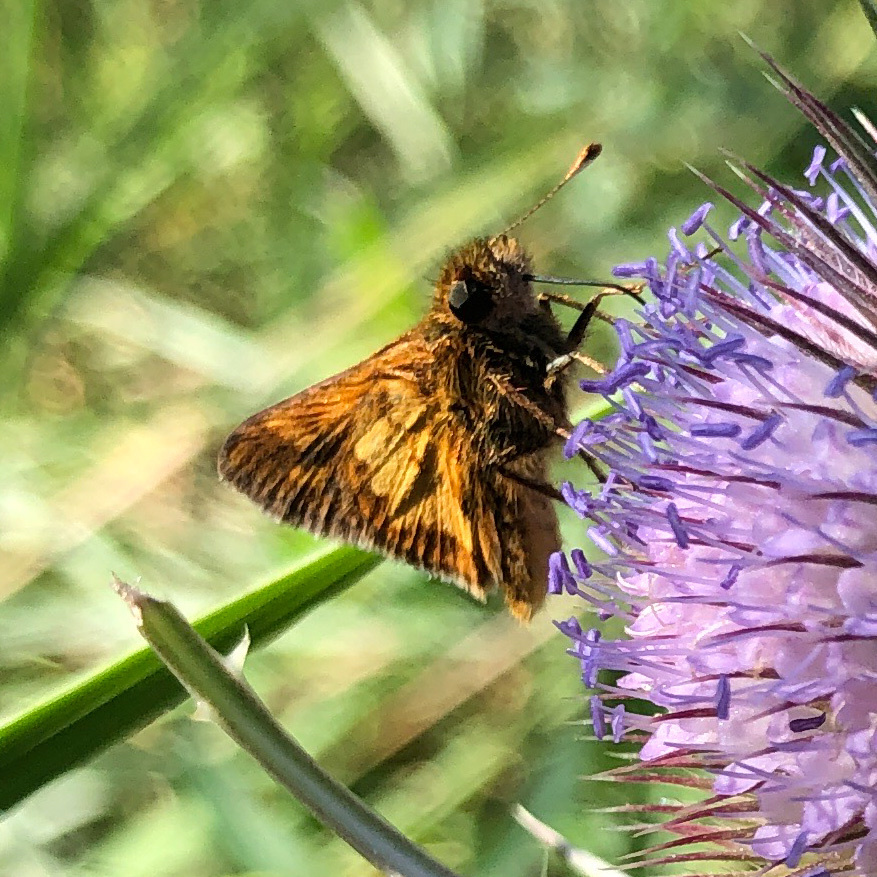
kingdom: Animalia
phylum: Arthropoda
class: Insecta
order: Lepidoptera
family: Hesperiidae
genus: Polites
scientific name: Polites coras
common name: Peck's skipper
